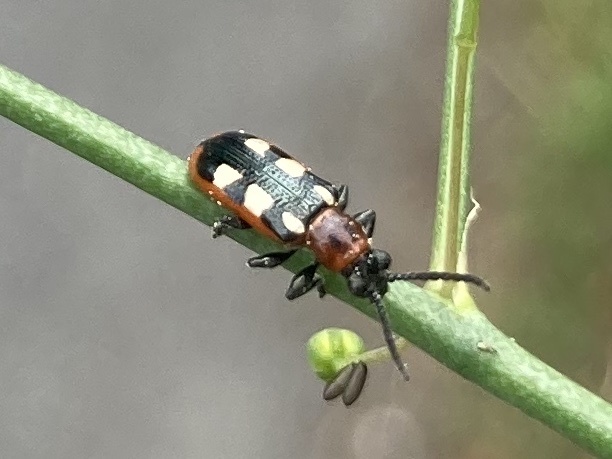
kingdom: Animalia
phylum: Arthropoda
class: Insecta
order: Coleoptera
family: Chrysomelidae
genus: Crioceris
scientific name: Crioceris asparagi
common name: Asparagus beetle
